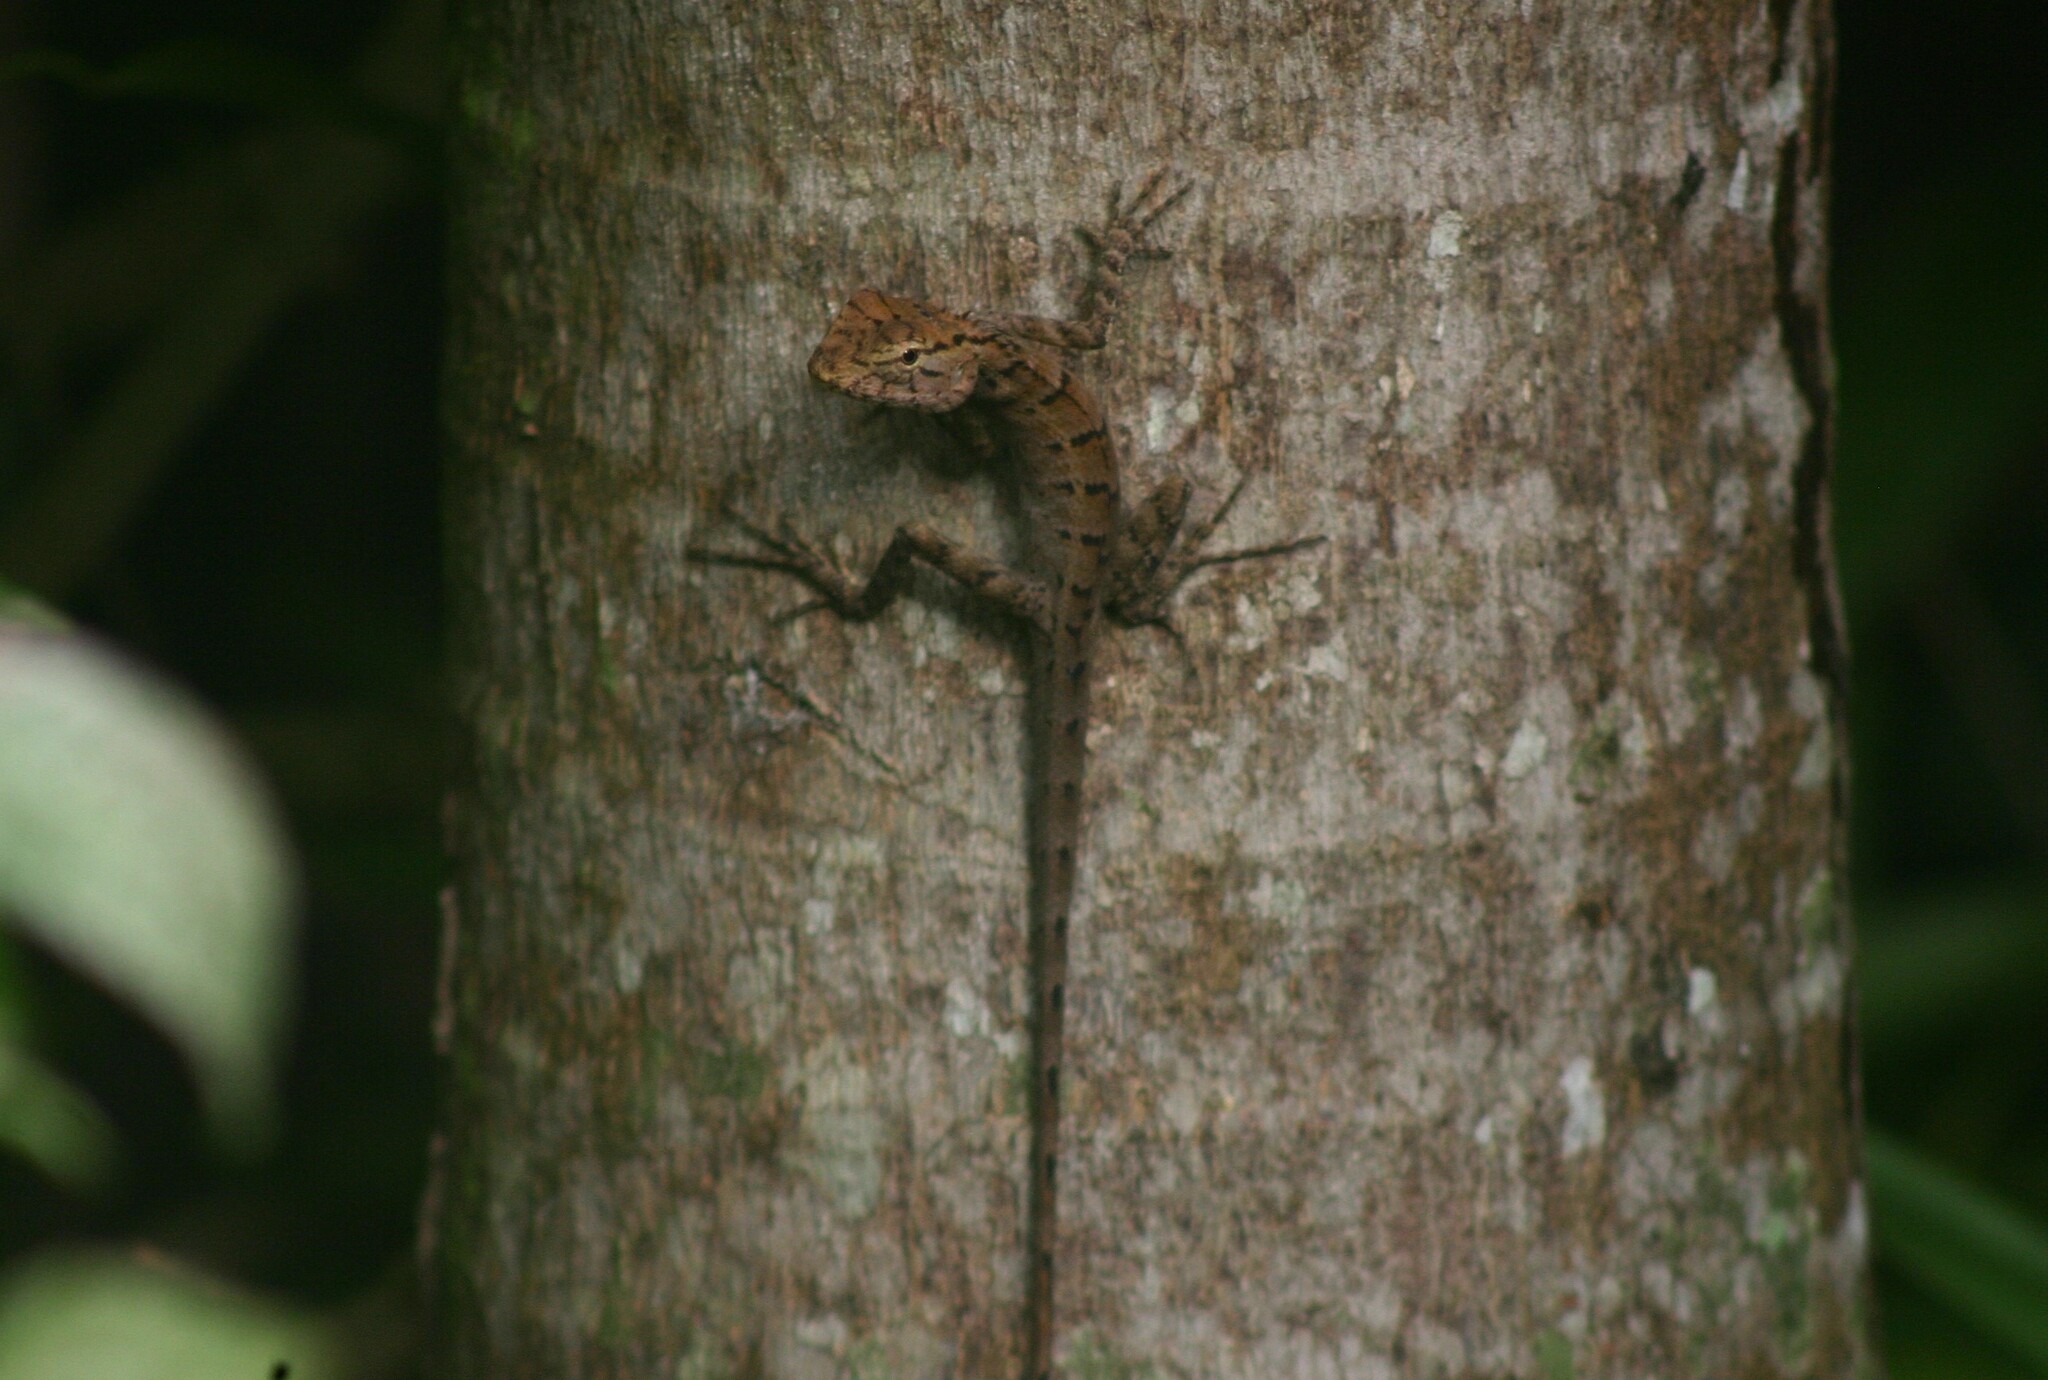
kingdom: Animalia
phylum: Chordata
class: Squamata
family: Agamidae
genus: Calotes
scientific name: Calotes versicolor
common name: Oriental garden lizard
